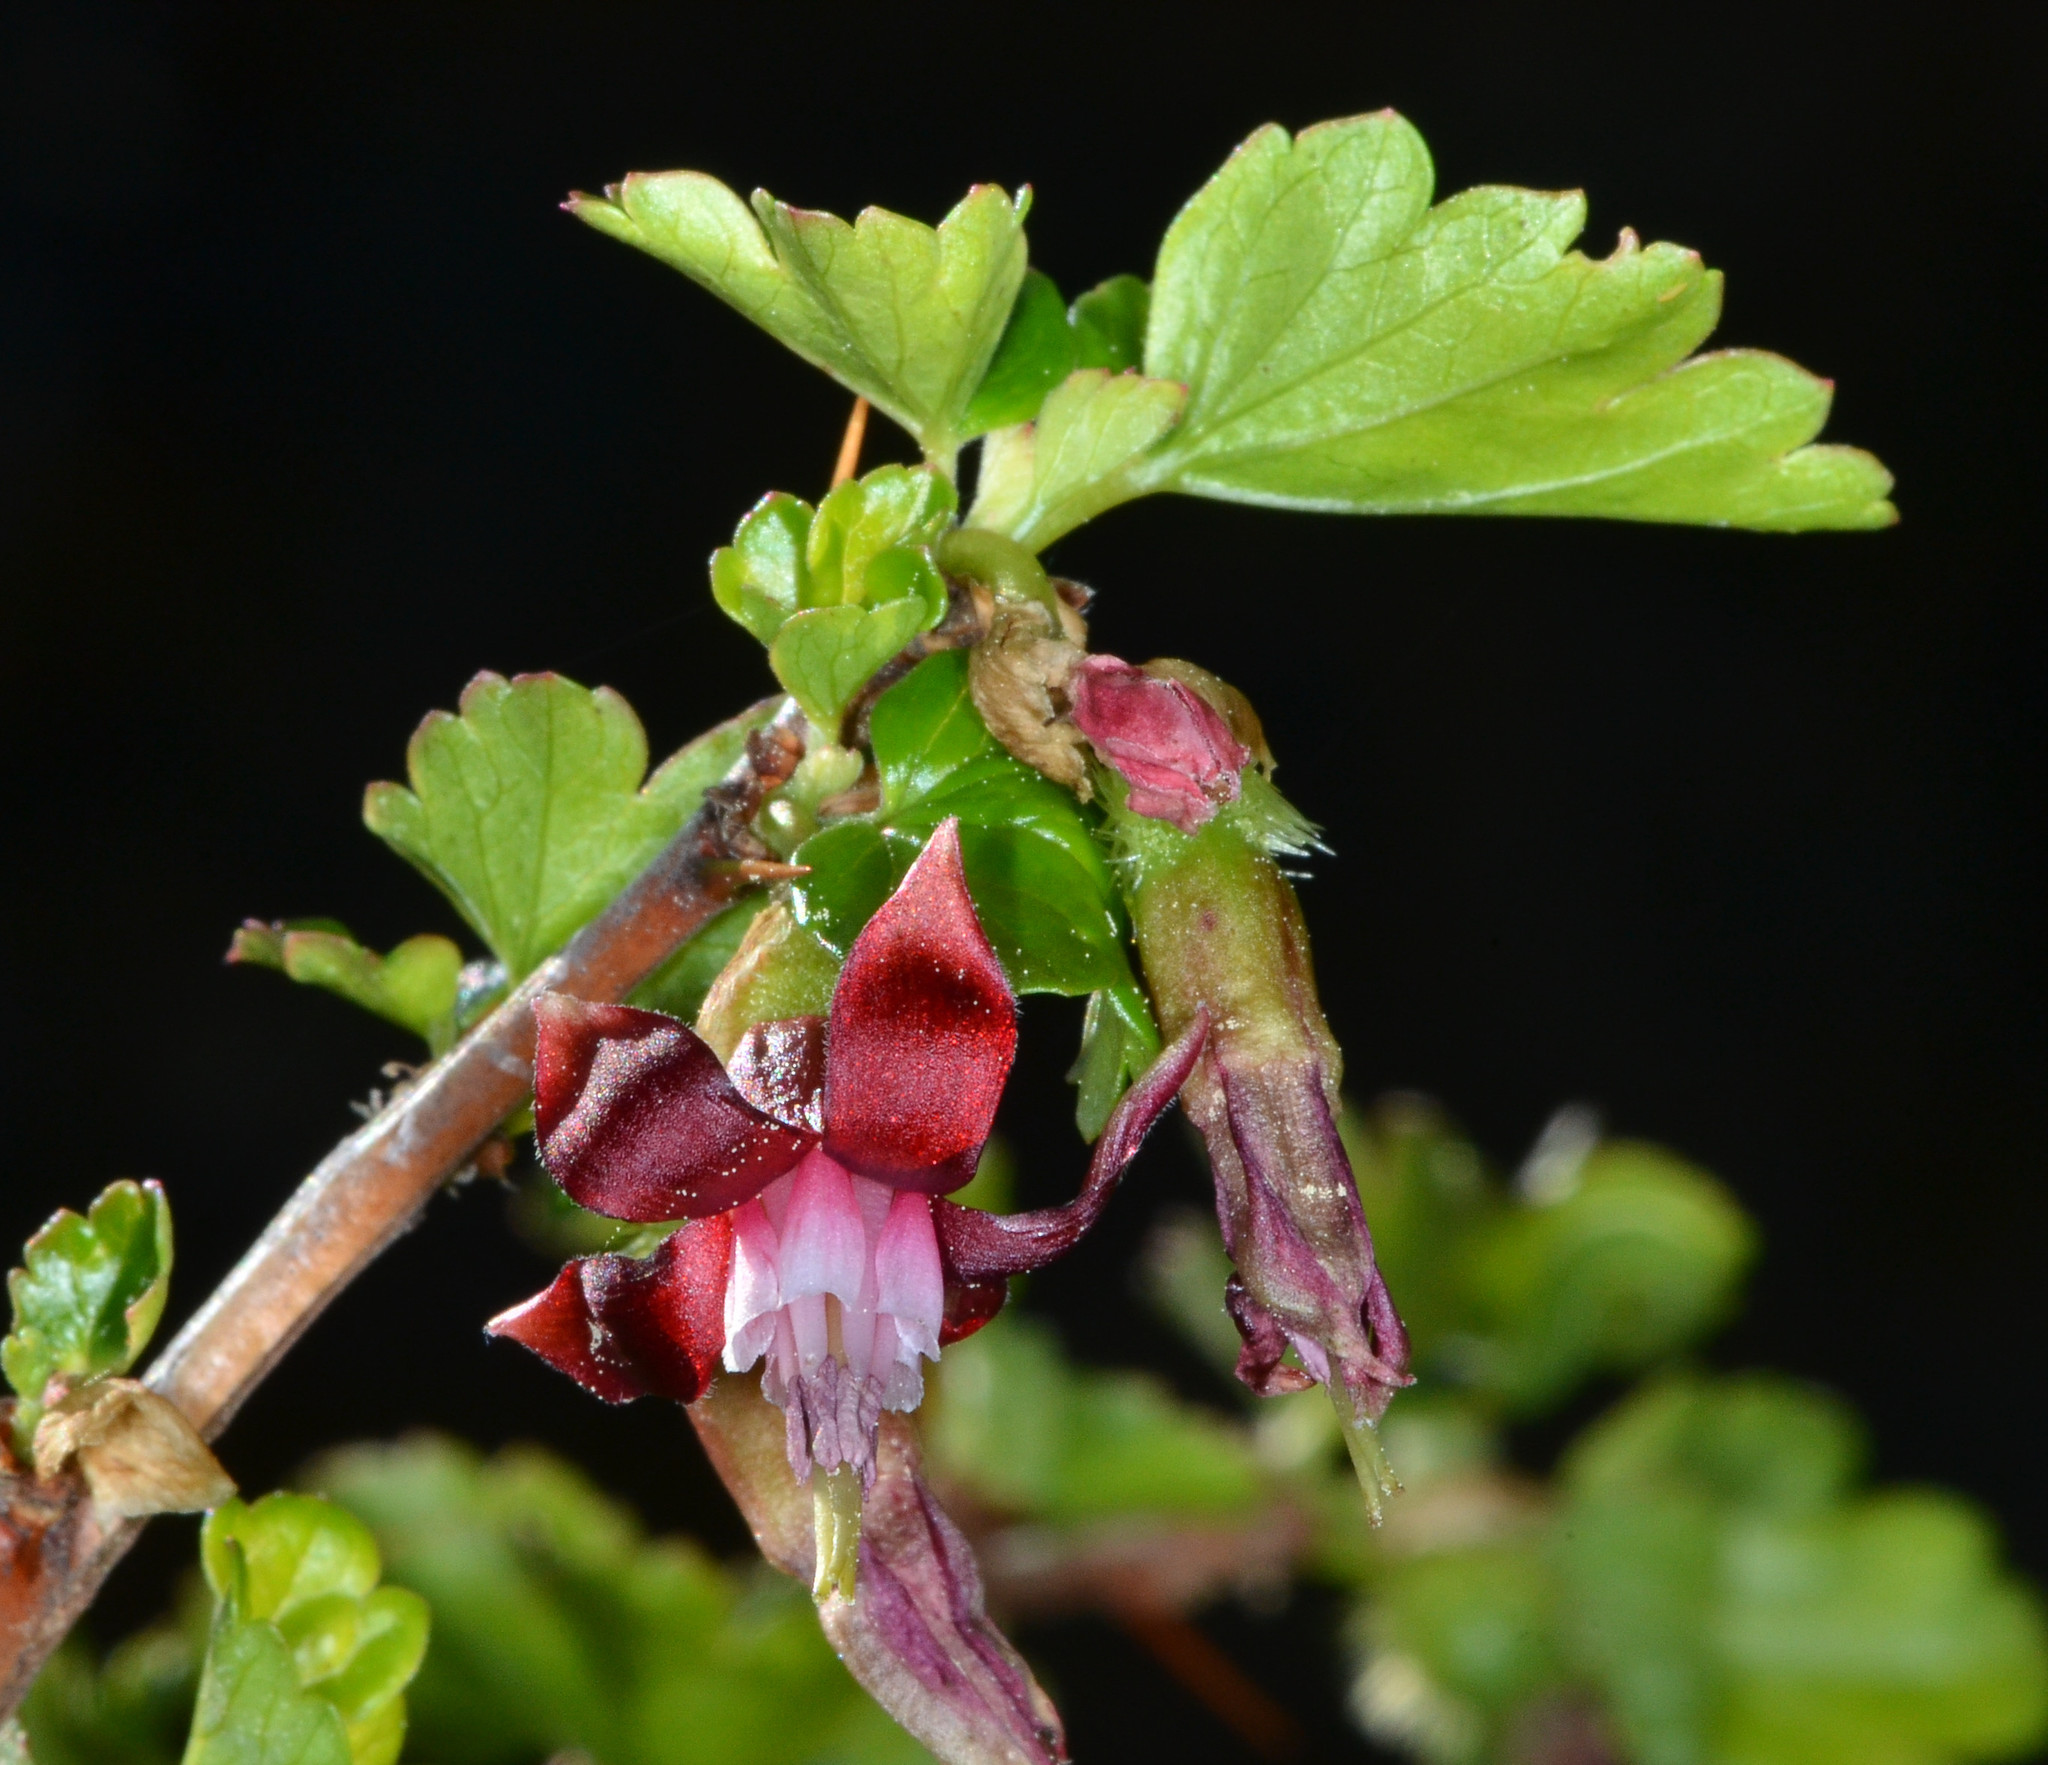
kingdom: Plantae
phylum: Tracheophyta
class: Magnoliopsida
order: Saxifragales
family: Grossulariaceae
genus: Ribes
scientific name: Ribes cruentum
